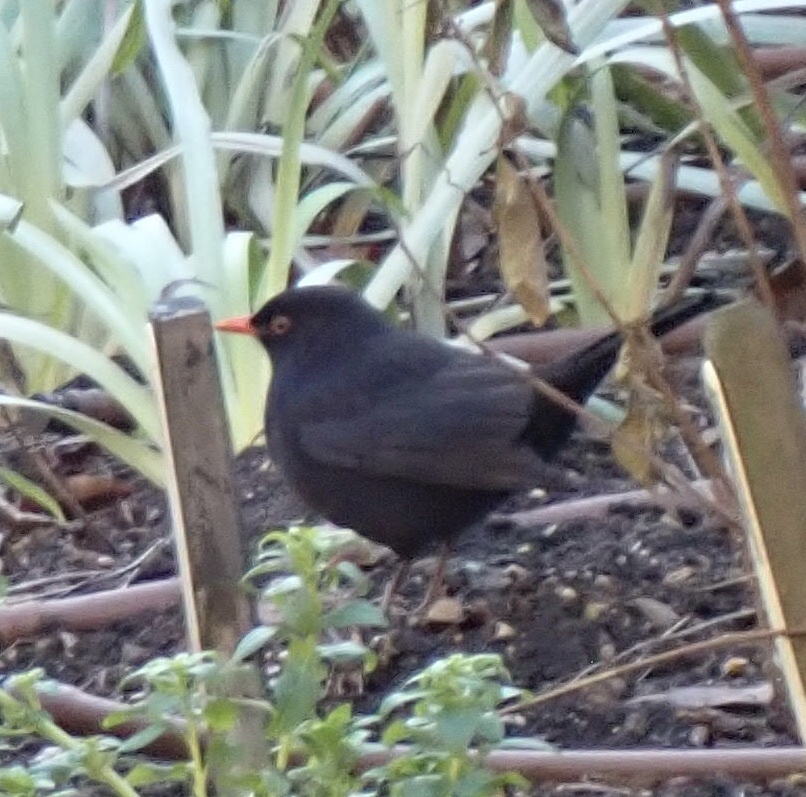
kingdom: Animalia
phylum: Chordata
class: Aves
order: Passeriformes
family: Turdidae
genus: Turdus
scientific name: Turdus merula
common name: Common blackbird
